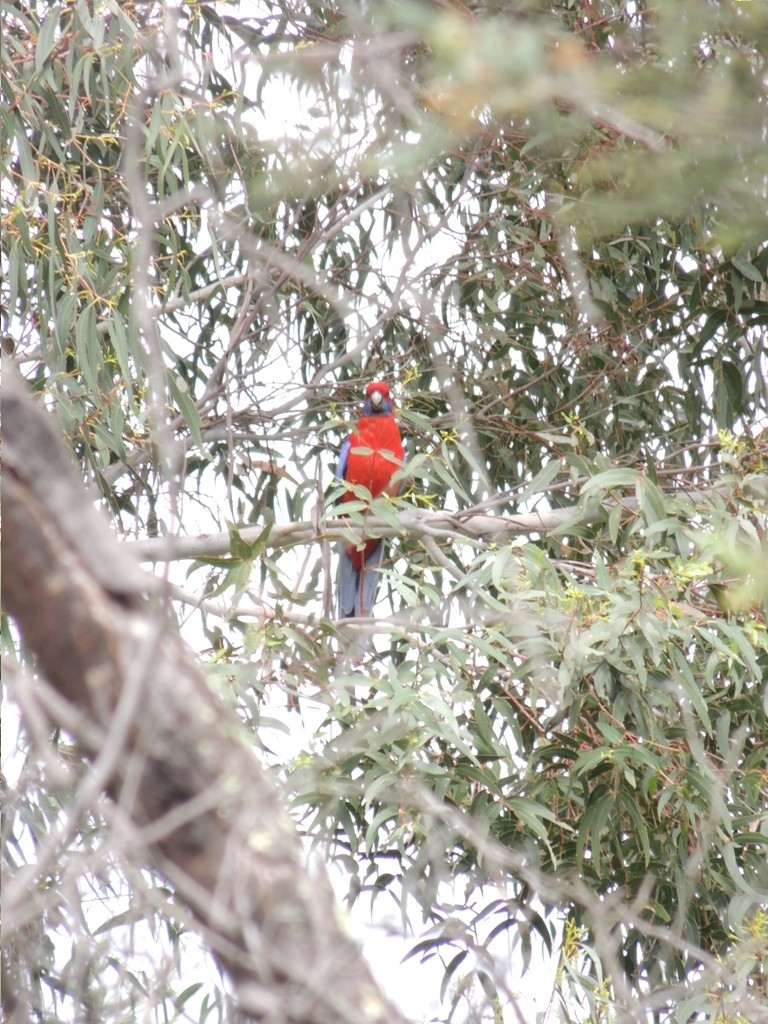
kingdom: Animalia
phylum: Chordata
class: Aves
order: Psittaciformes
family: Psittacidae
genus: Platycercus
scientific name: Platycercus elegans
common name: Crimson rosella
